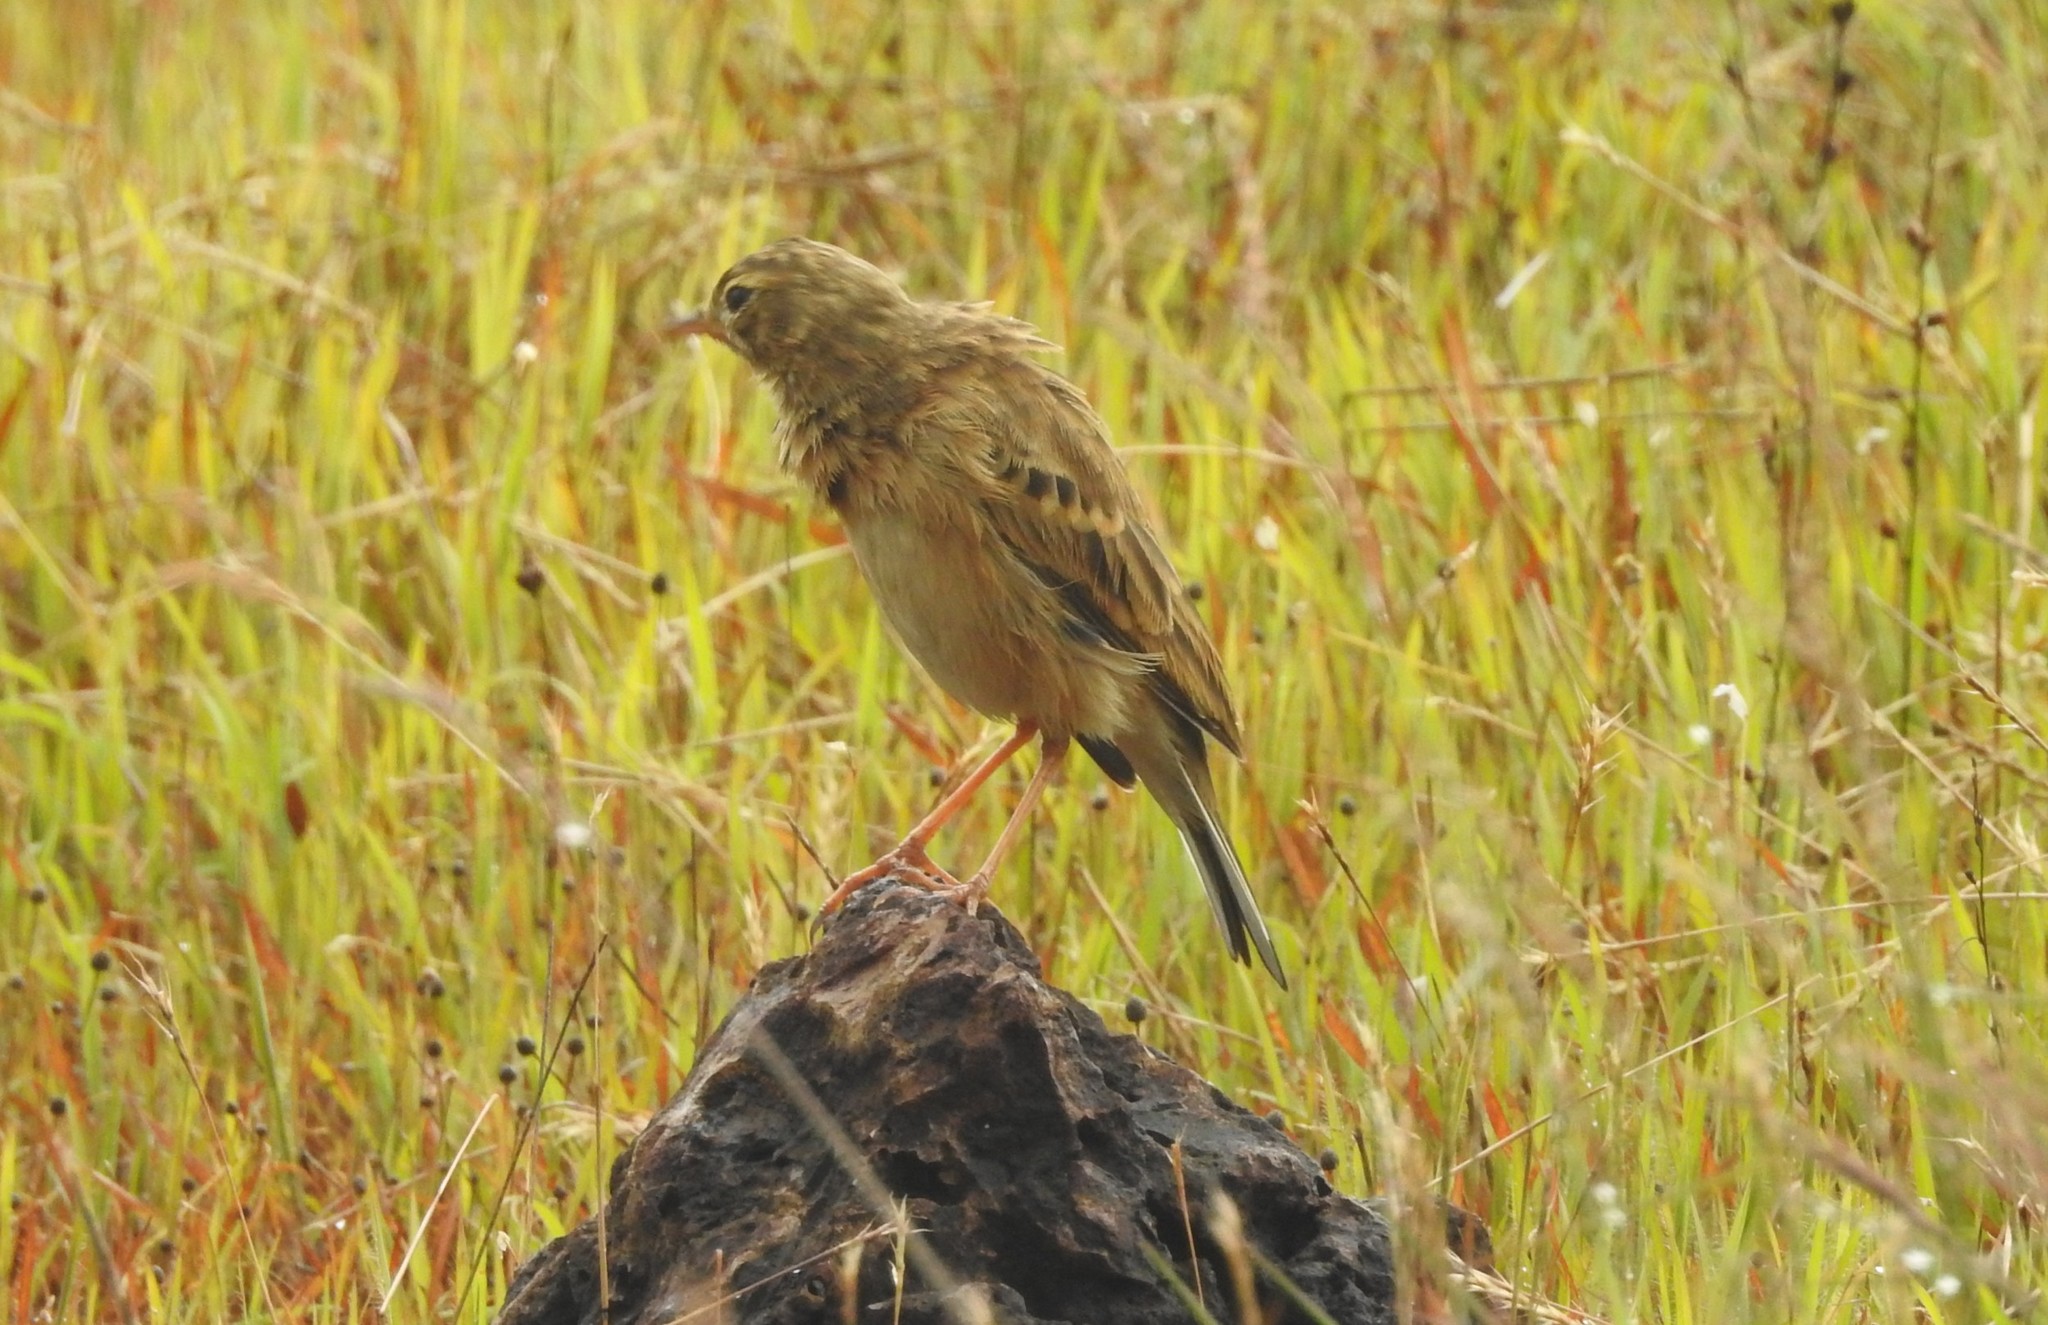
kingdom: Animalia
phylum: Chordata
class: Aves
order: Passeriformes
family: Motacillidae
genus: Anthus
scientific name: Anthus rufulus
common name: Paddyfield pipit
